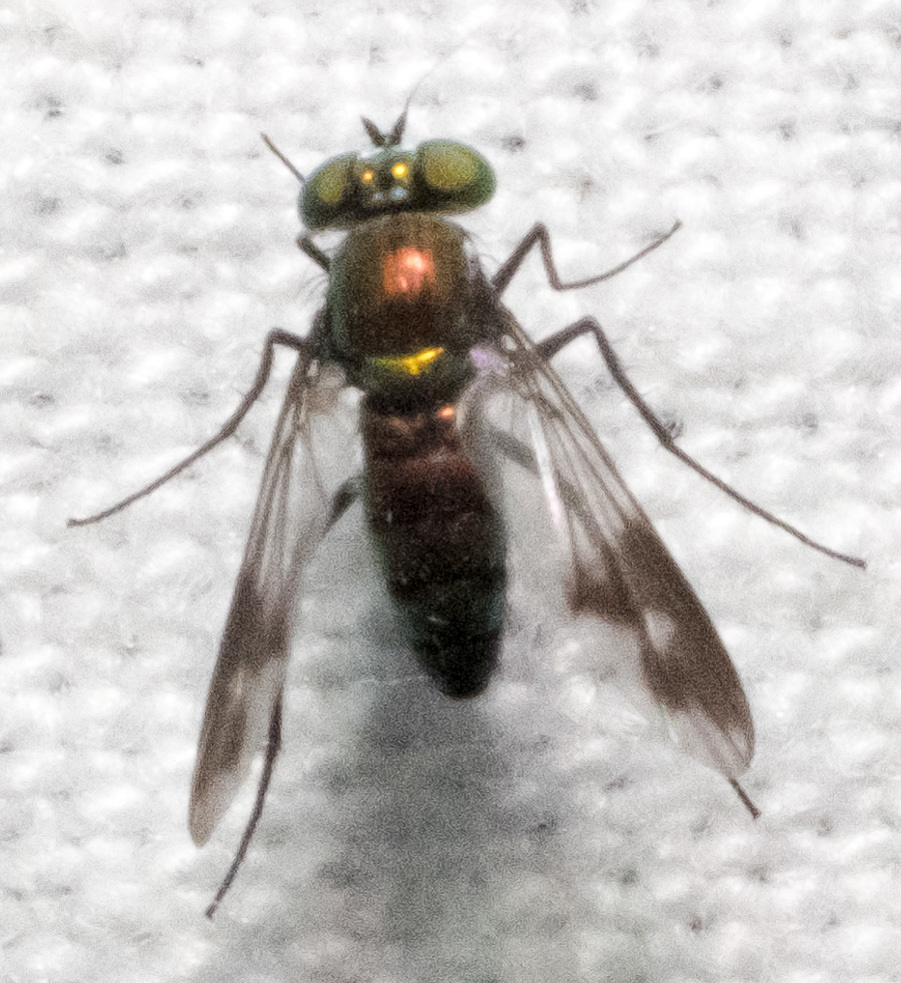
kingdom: Animalia
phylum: Arthropoda
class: Insecta
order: Diptera
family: Dolichopodidae
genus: Condylostylus
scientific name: Condylostylus patibulatus
